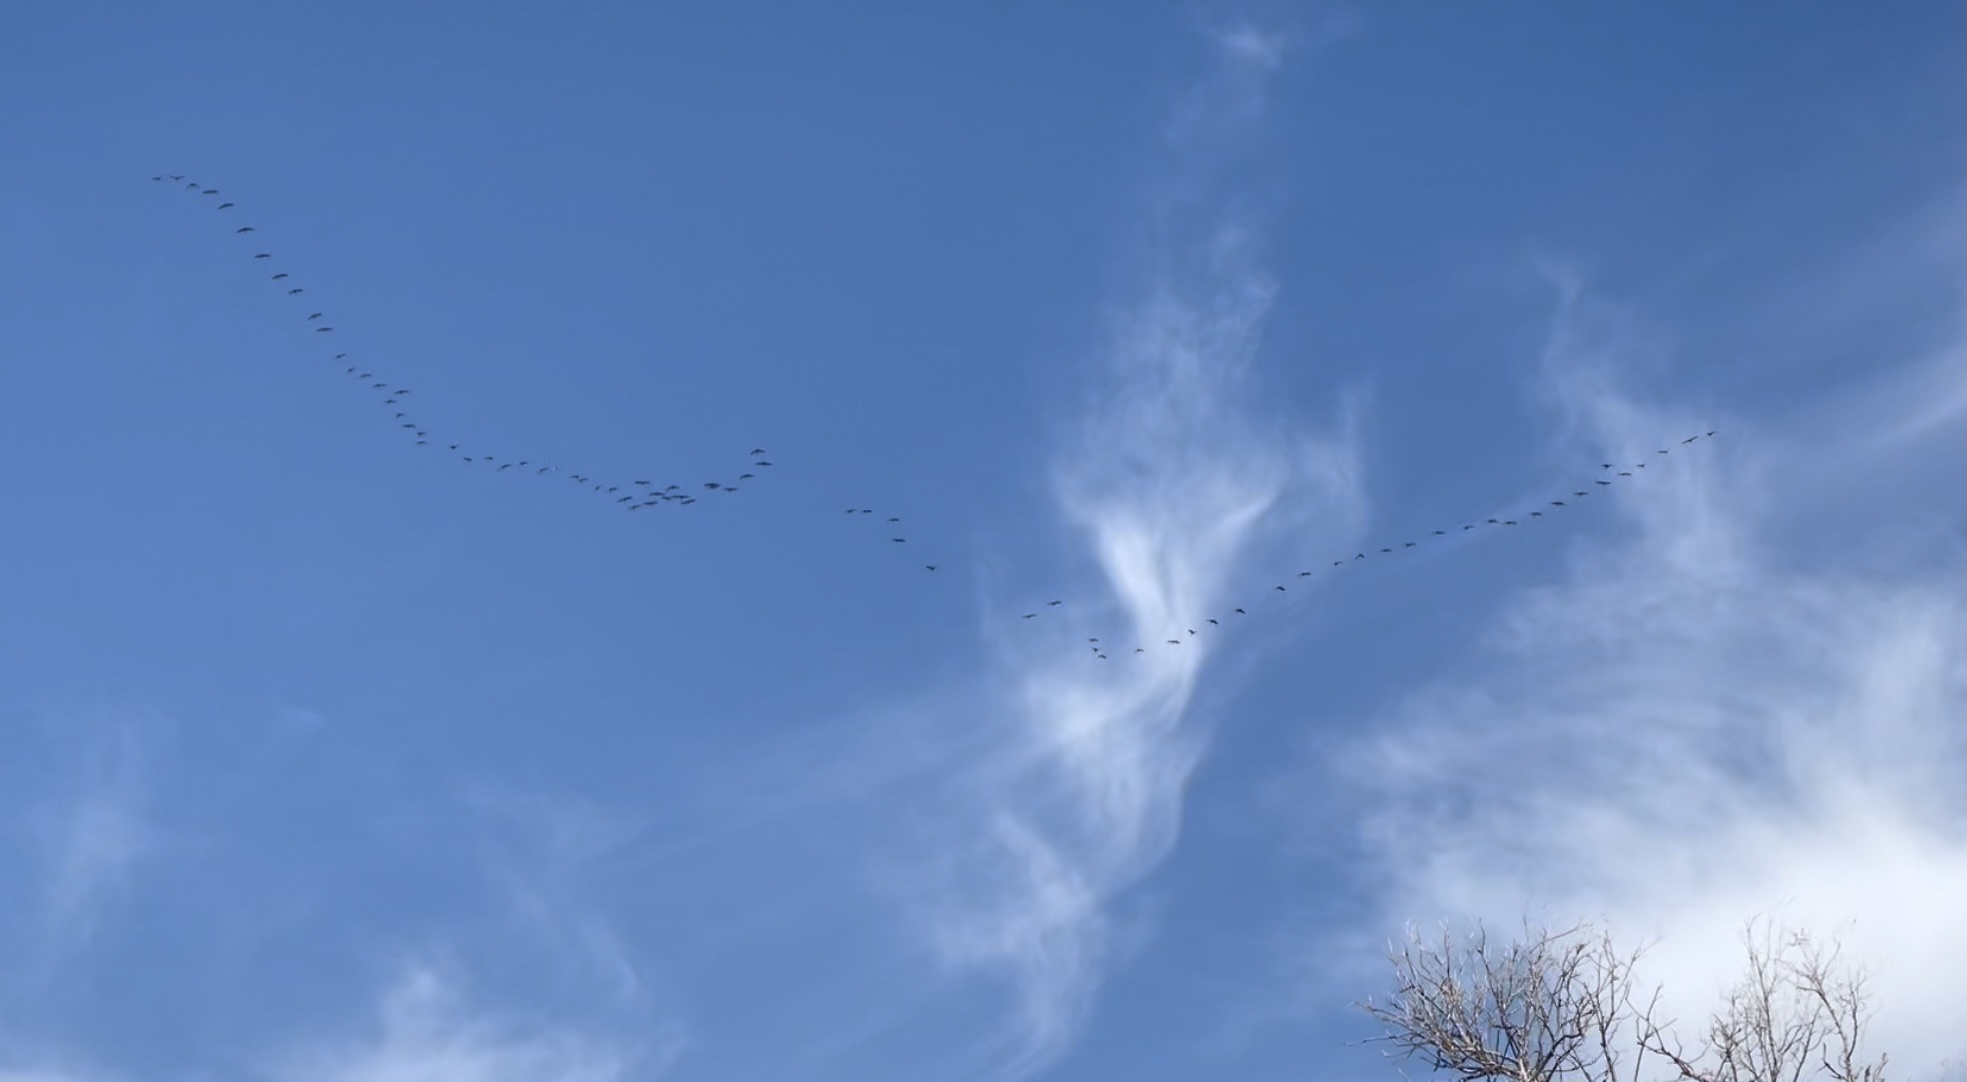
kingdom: Animalia
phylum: Chordata
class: Aves
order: Gruiformes
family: Gruidae
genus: Grus
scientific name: Grus canadensis
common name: Sandhill crane
